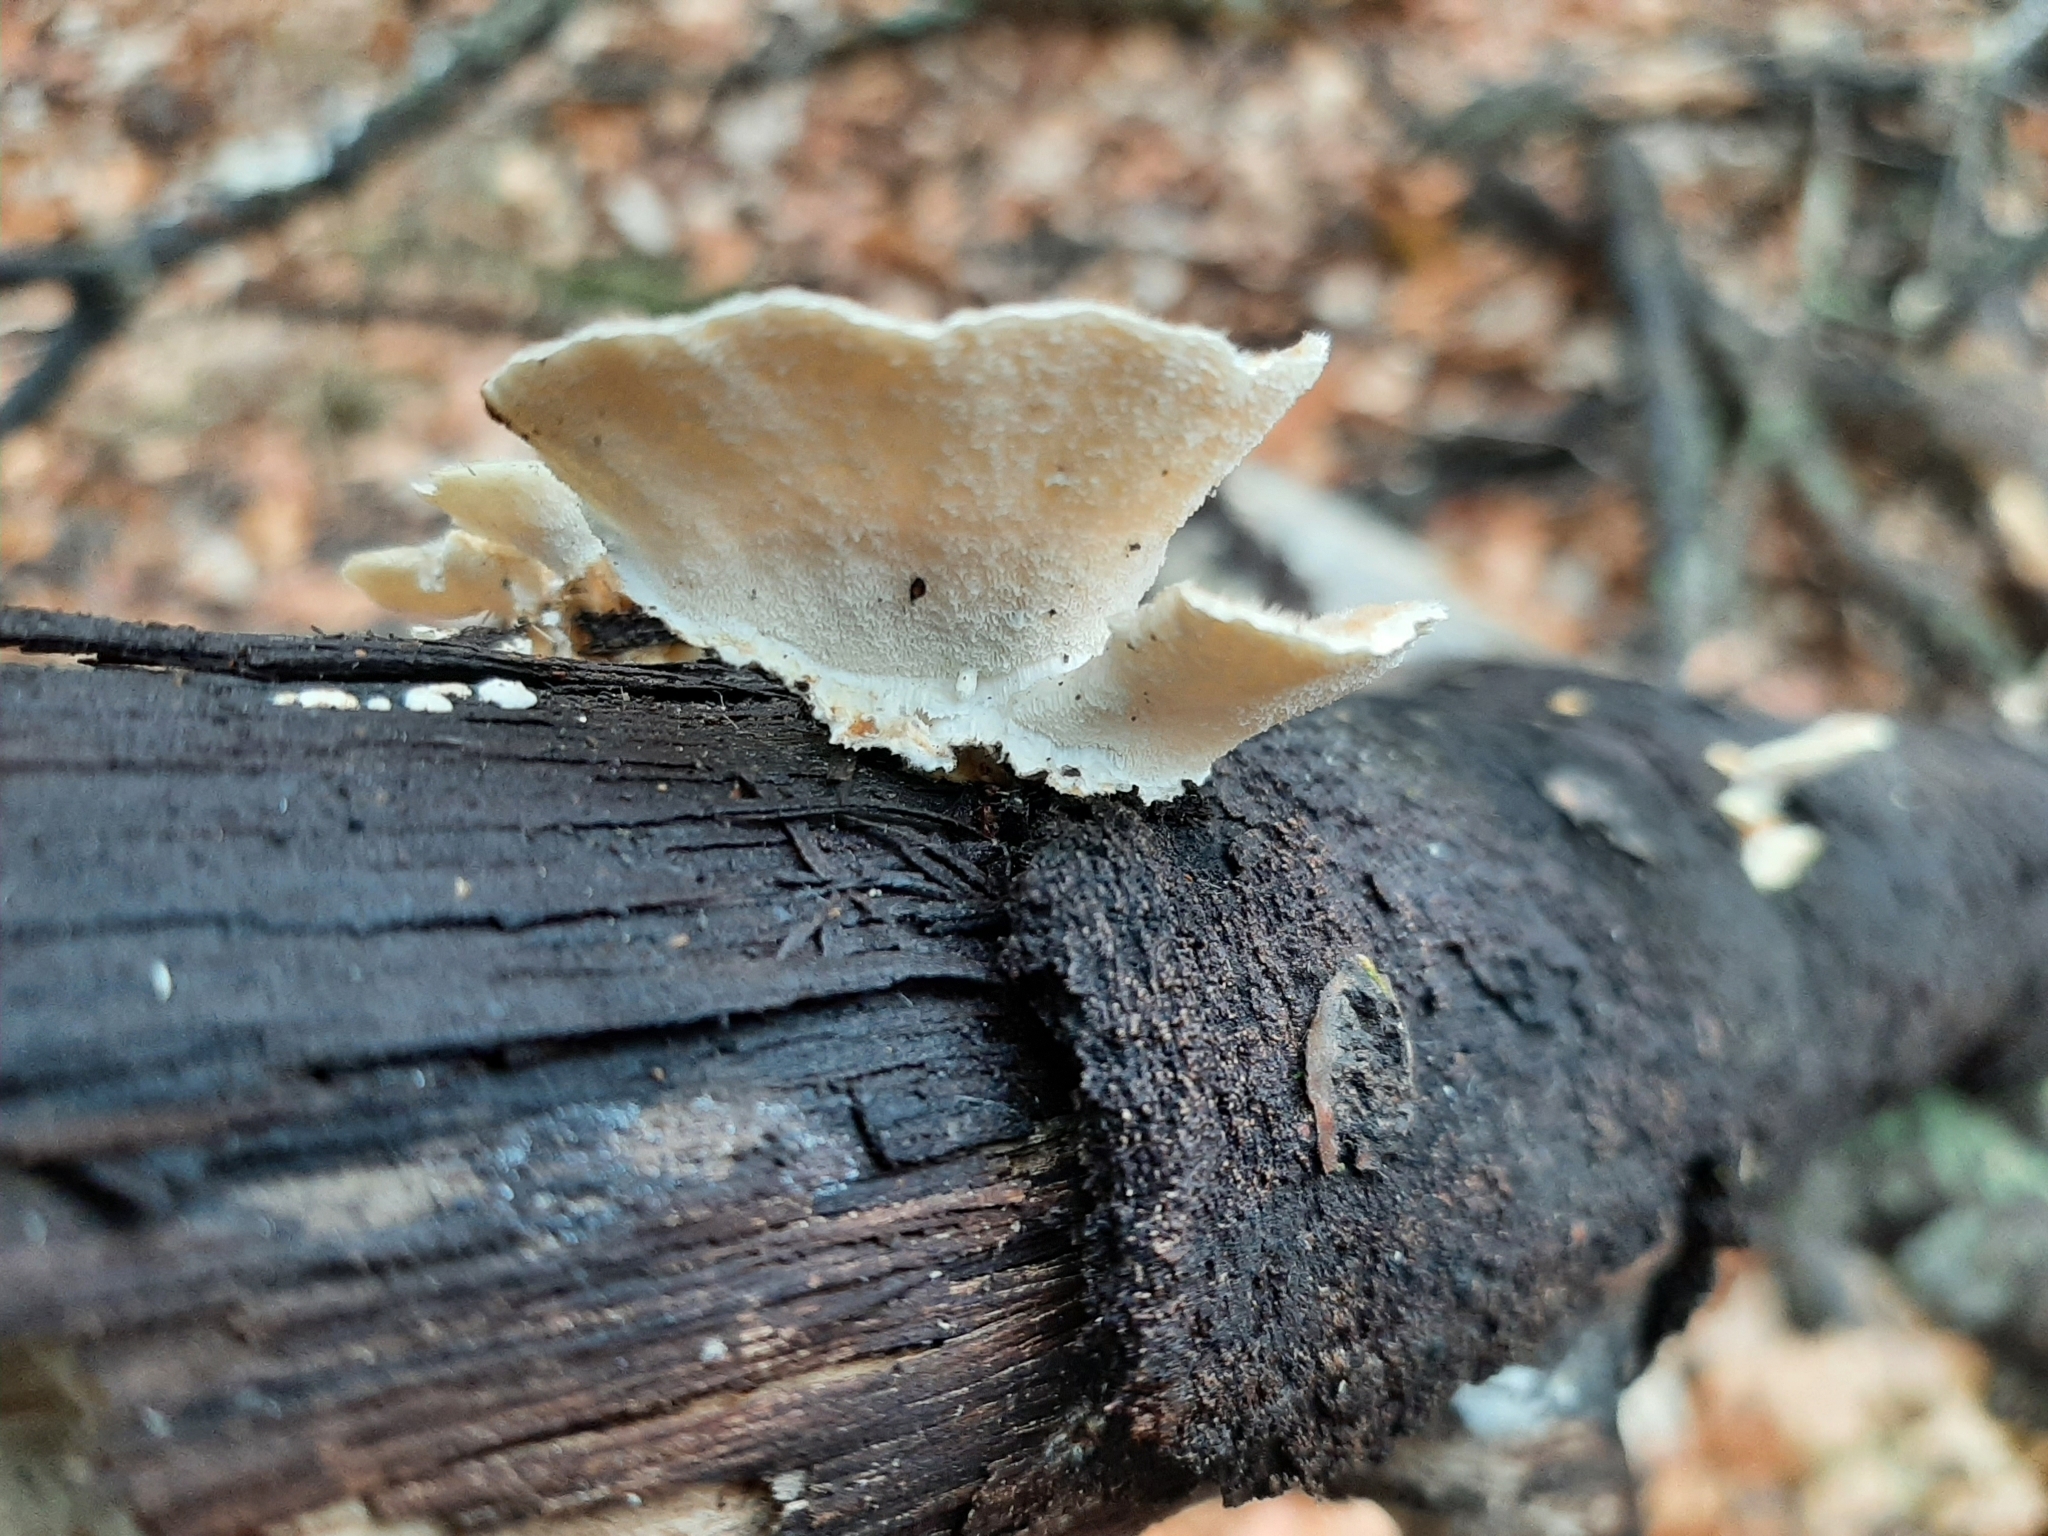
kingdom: Fungi
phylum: Basidiomycota
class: Agaricomycetes
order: Polyporales
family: Polyporaceae
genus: Trametes
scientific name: Trametes ochracea
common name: Ochre bracket
